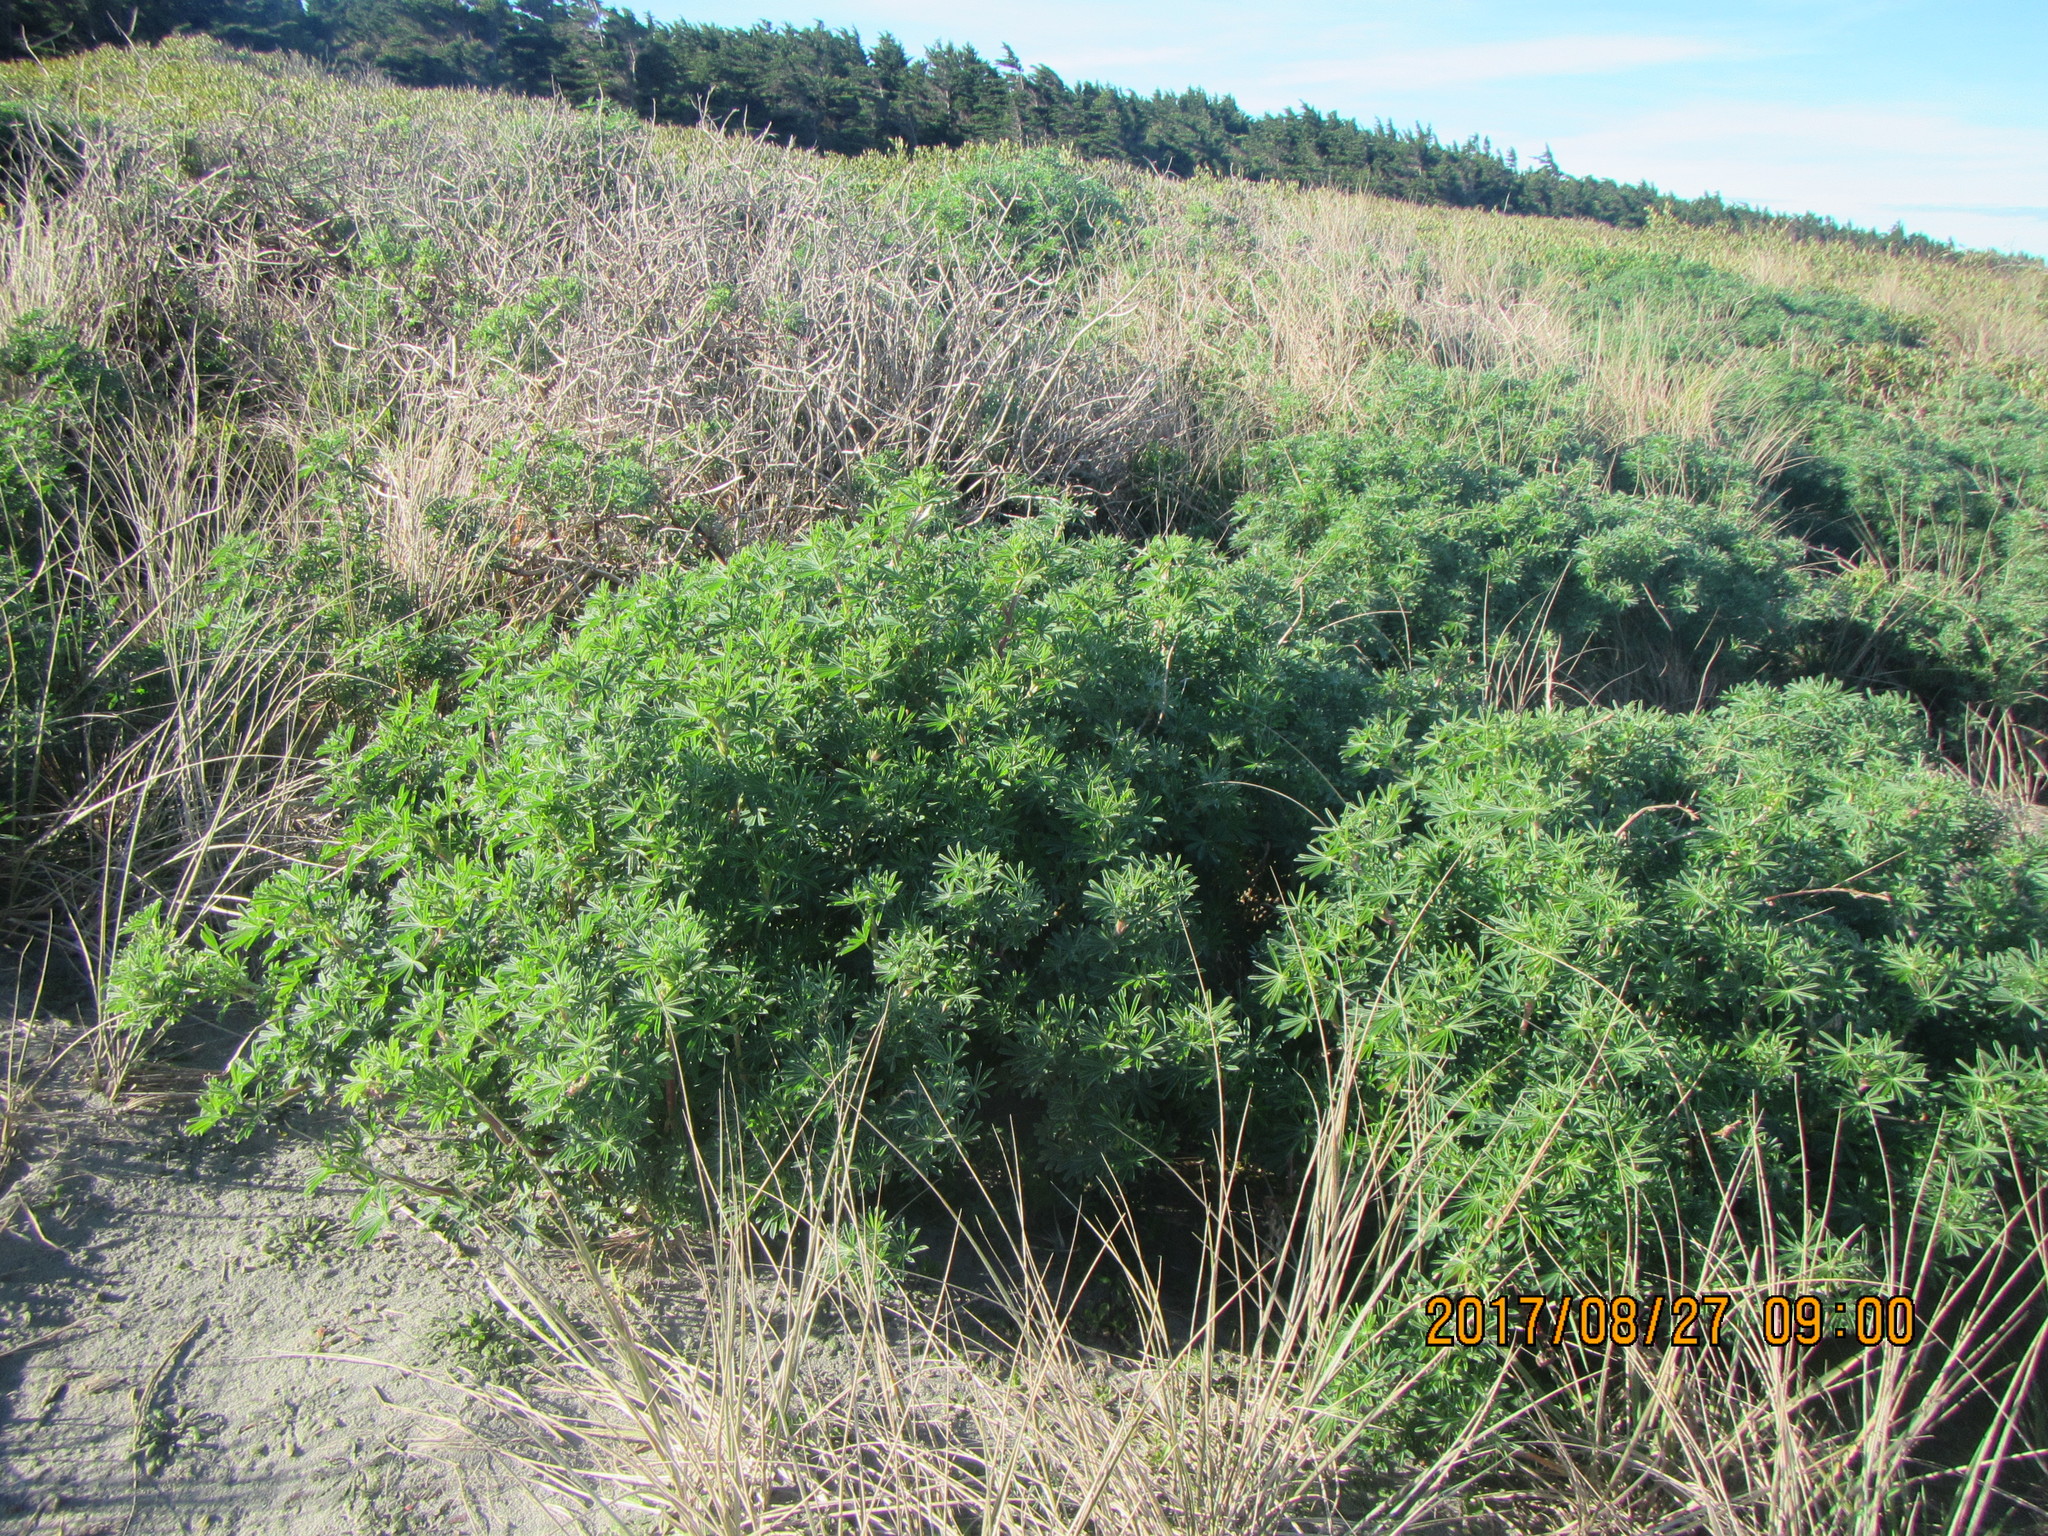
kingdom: Plantae
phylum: Tracheophyta
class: Magnoliopsida
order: Fabales
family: Fabaceae
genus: Lupinus
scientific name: Lupinus arboreus
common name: Yellow bush lupine
